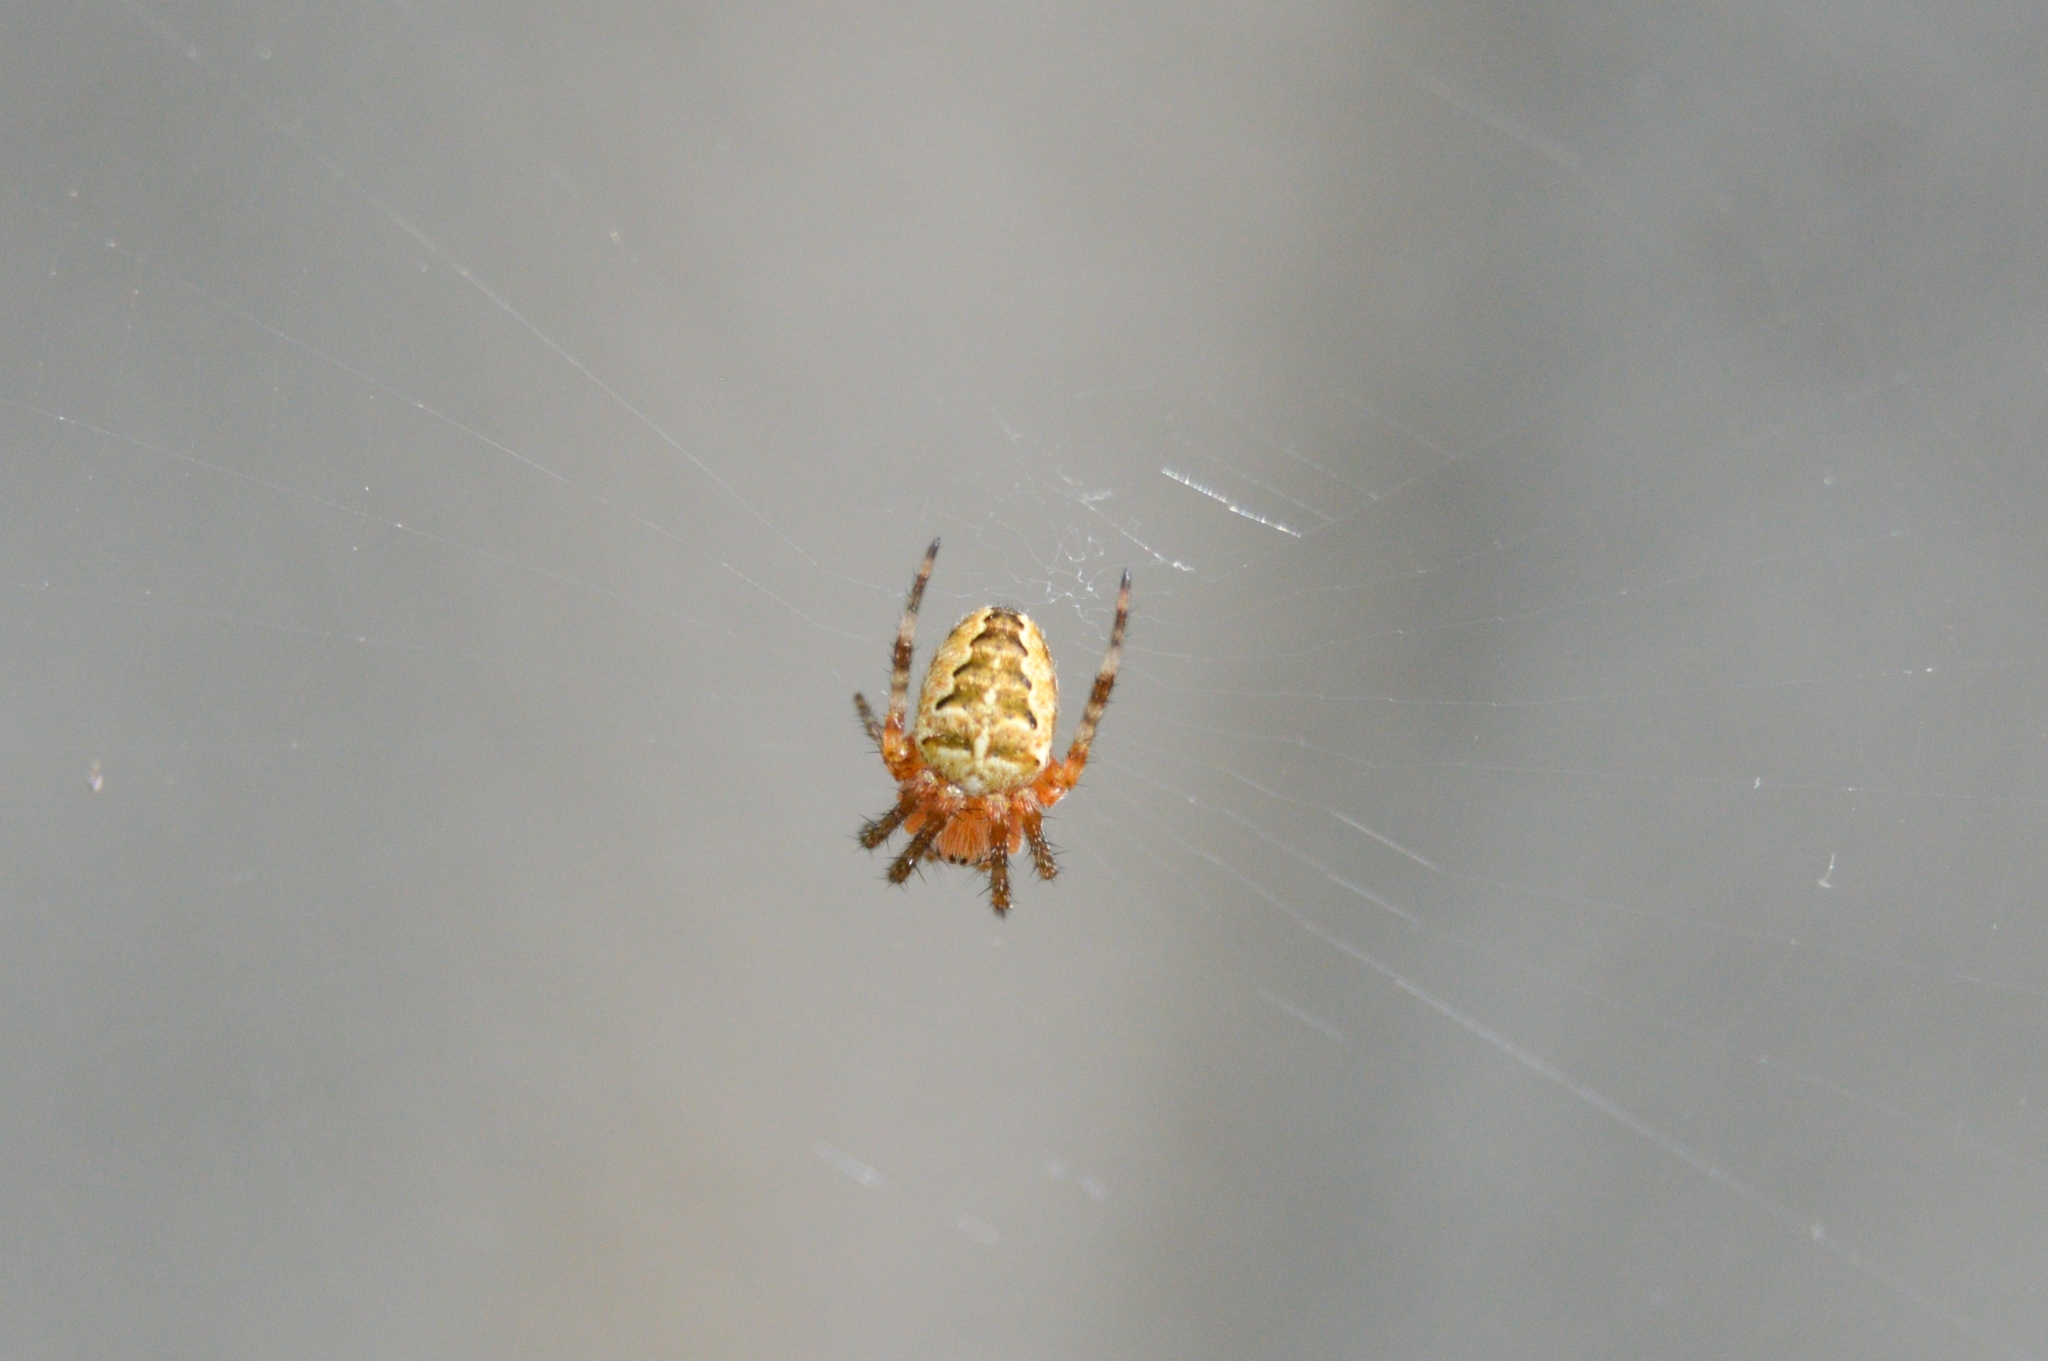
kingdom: Animalia
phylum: Arthropoda
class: Arachnida
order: Araneae
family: Araneidae
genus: Araneus
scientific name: Araneus diadematus
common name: Cross orbweaver
